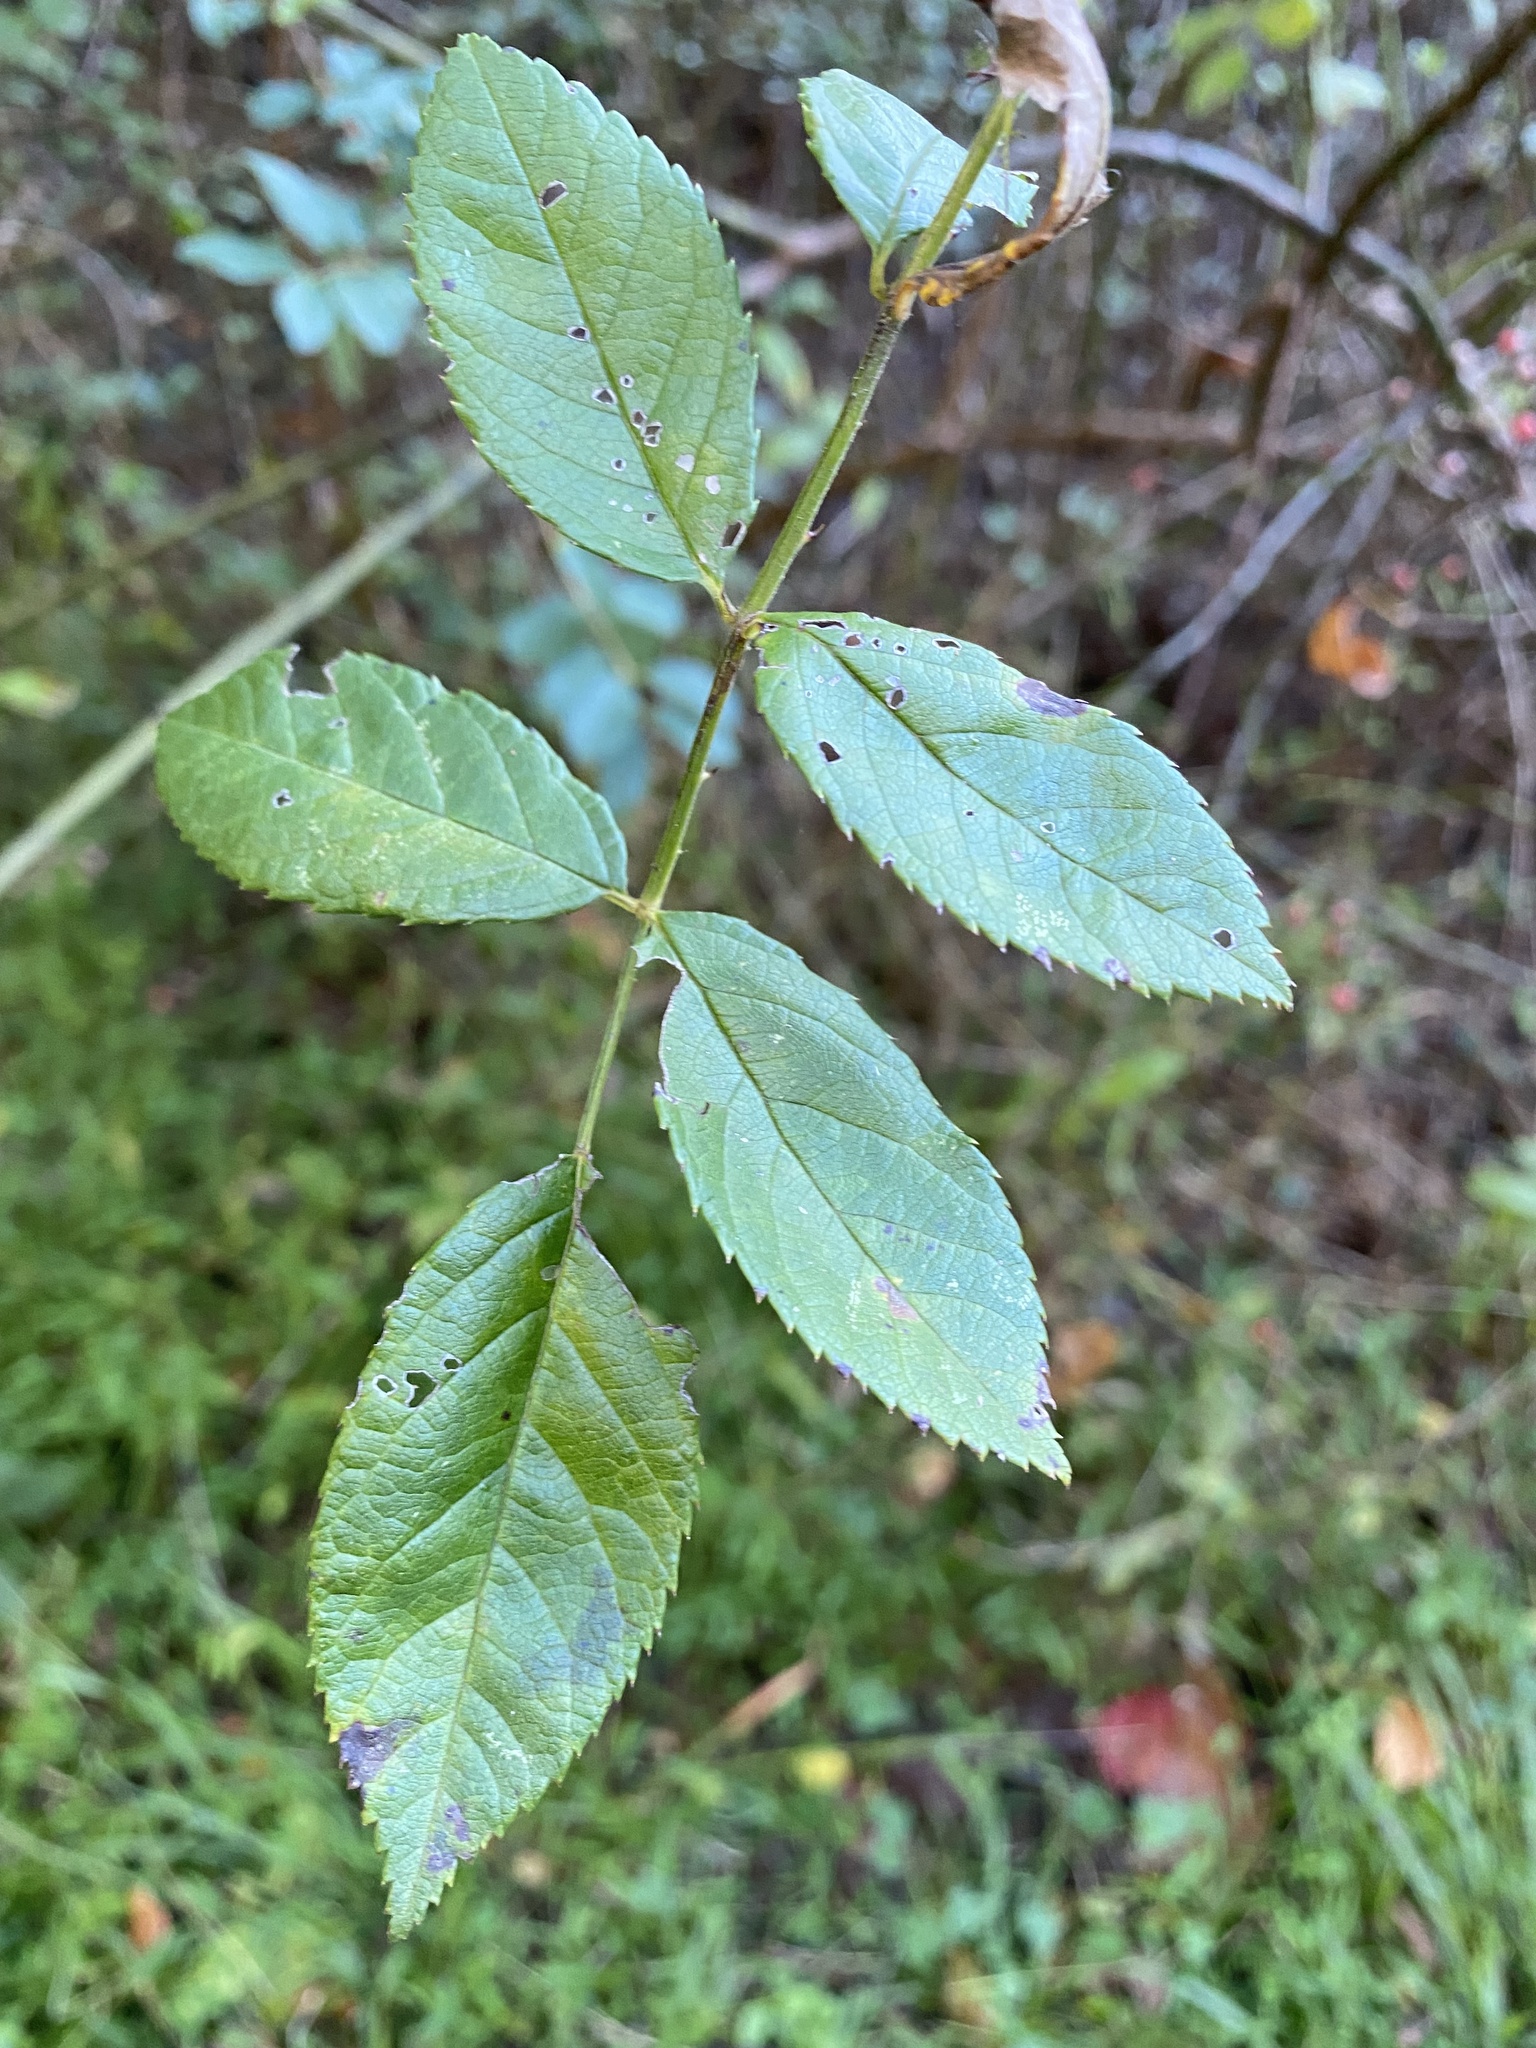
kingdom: Plantae
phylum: Tracheophyta
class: Magnoliopsida
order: Rosales
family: Rosaceae
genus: Rosa
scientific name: Rosa multiflora
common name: Multiflora rose
